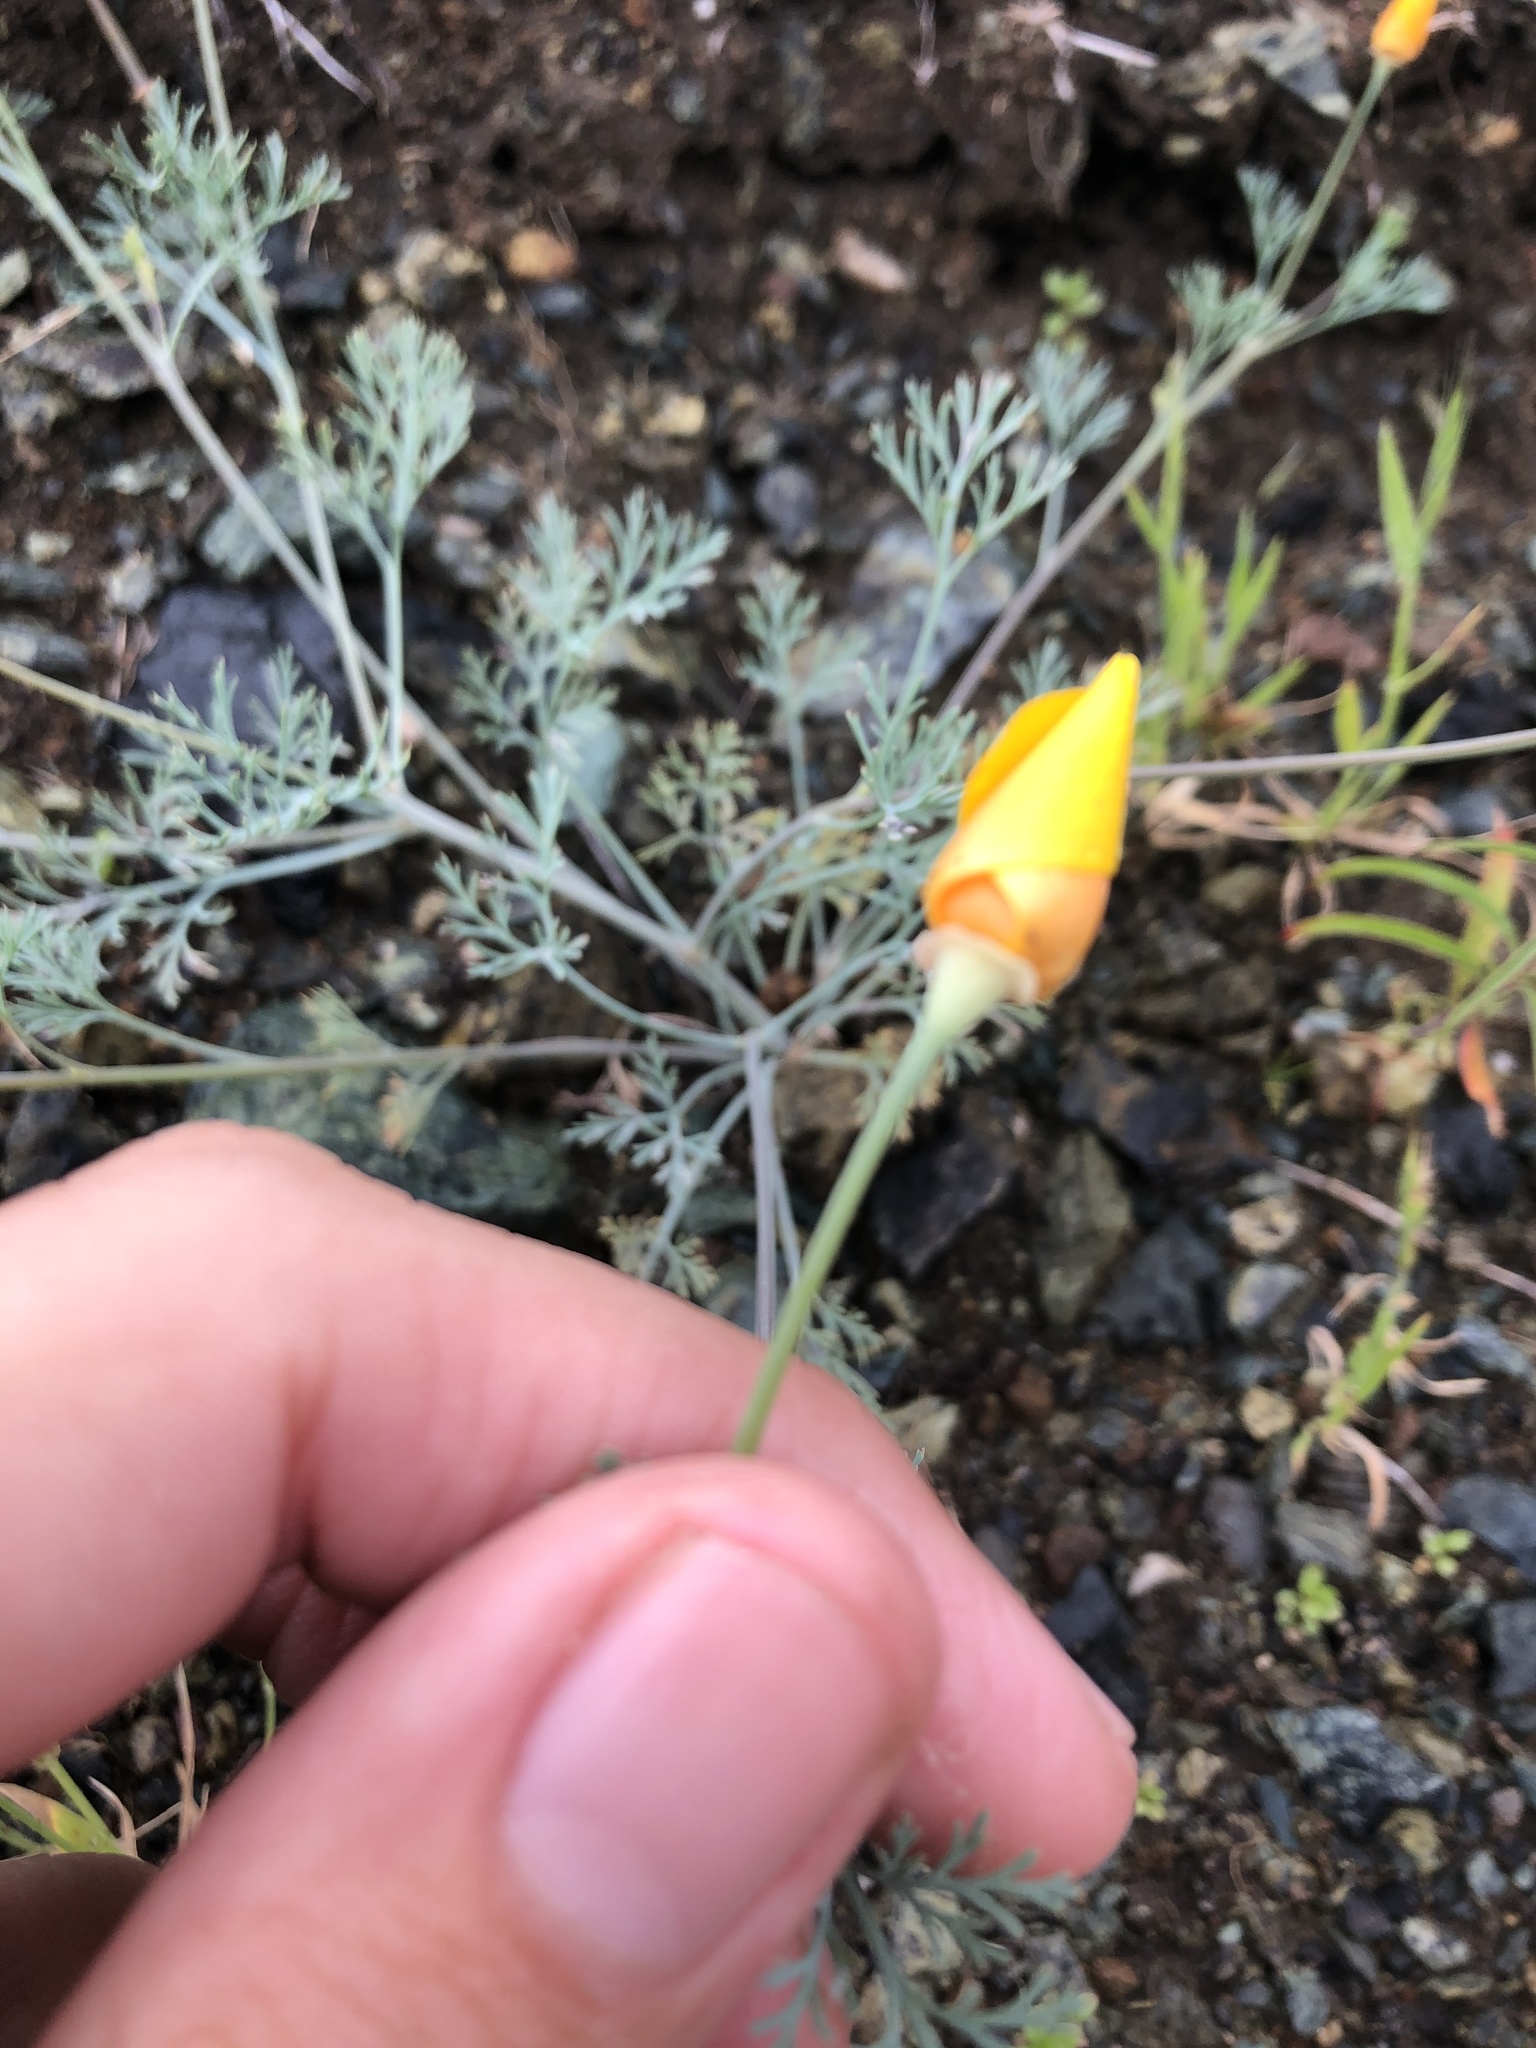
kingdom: Plantae
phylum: Tracheophyta
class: Magnoliopsida
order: Ranunculales
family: Papaveraceae
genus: Eschscholzia
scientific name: Eschscholzia californica
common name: California poppy
